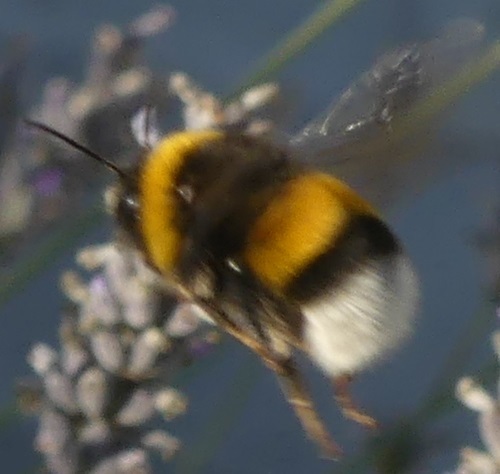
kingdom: Animalia
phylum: Arthropoda
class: Insecta
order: Hymenoptera
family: Apidae
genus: Bombus
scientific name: Bombus terrestris
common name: Buff-tailed bumblebee
